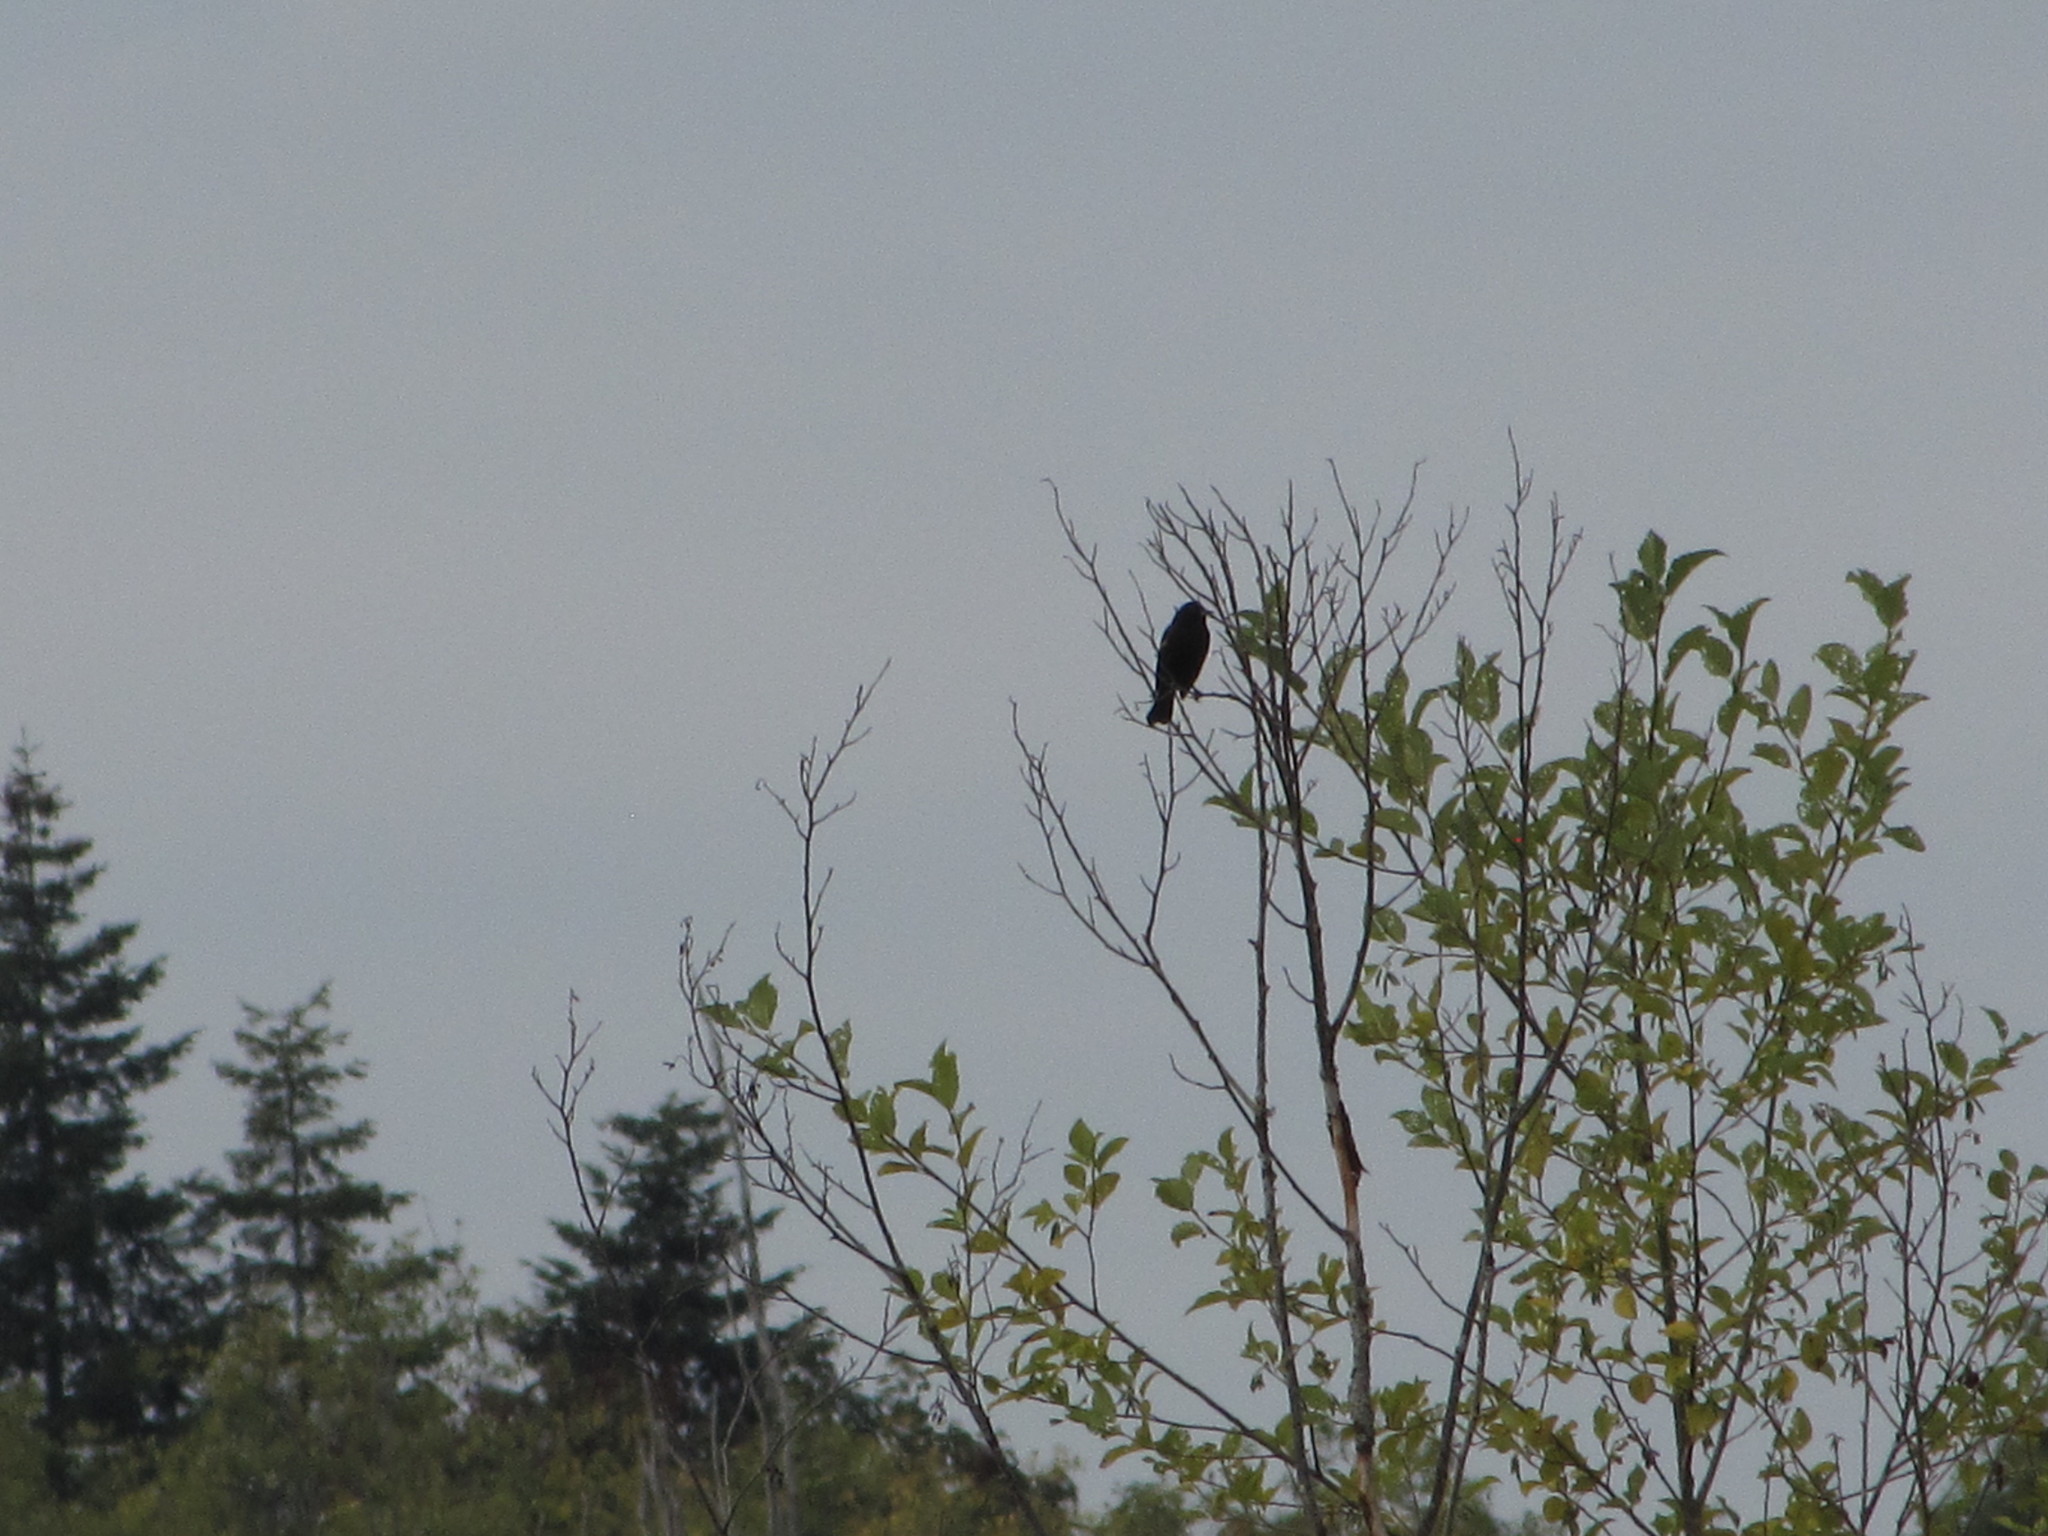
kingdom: Animalia
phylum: Chordata
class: Aves
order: Passeriformes
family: Icteridae
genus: Agelaius
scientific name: Agelaius phoeniceus
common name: Red-winged blackbird
